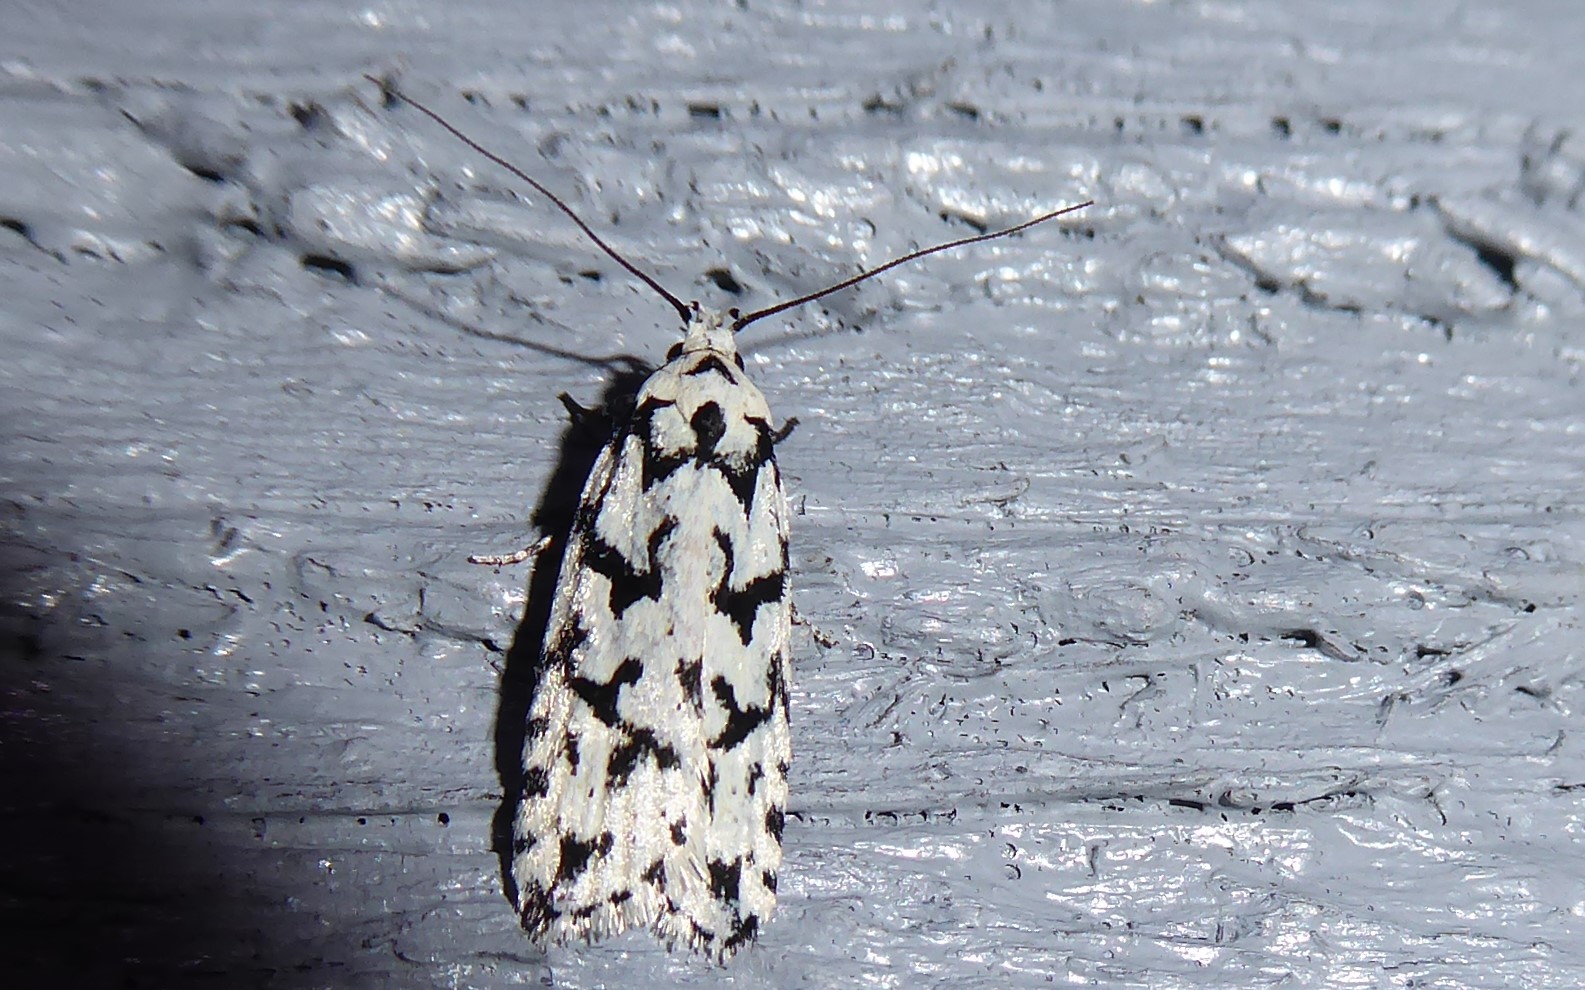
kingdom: Animalia
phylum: Arthropoda
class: Insecta
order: Lepidoptera
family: Oecophoridae
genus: Izatha
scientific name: Izatha katadiktya
